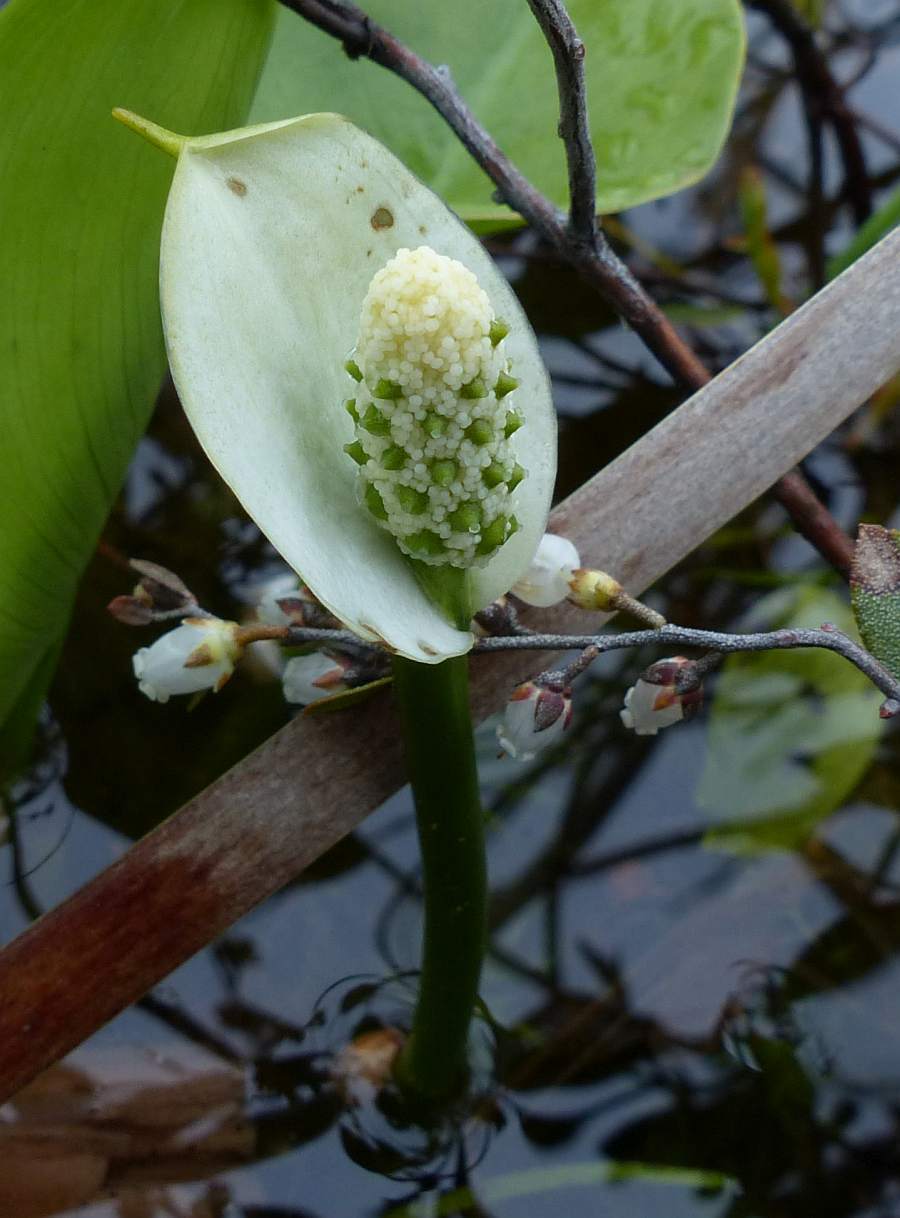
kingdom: Plantae
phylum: Tracheophyta
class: Liliopsida
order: Alismatales
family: Araceae
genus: Calla
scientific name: Calla palustris
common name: Bog arum
